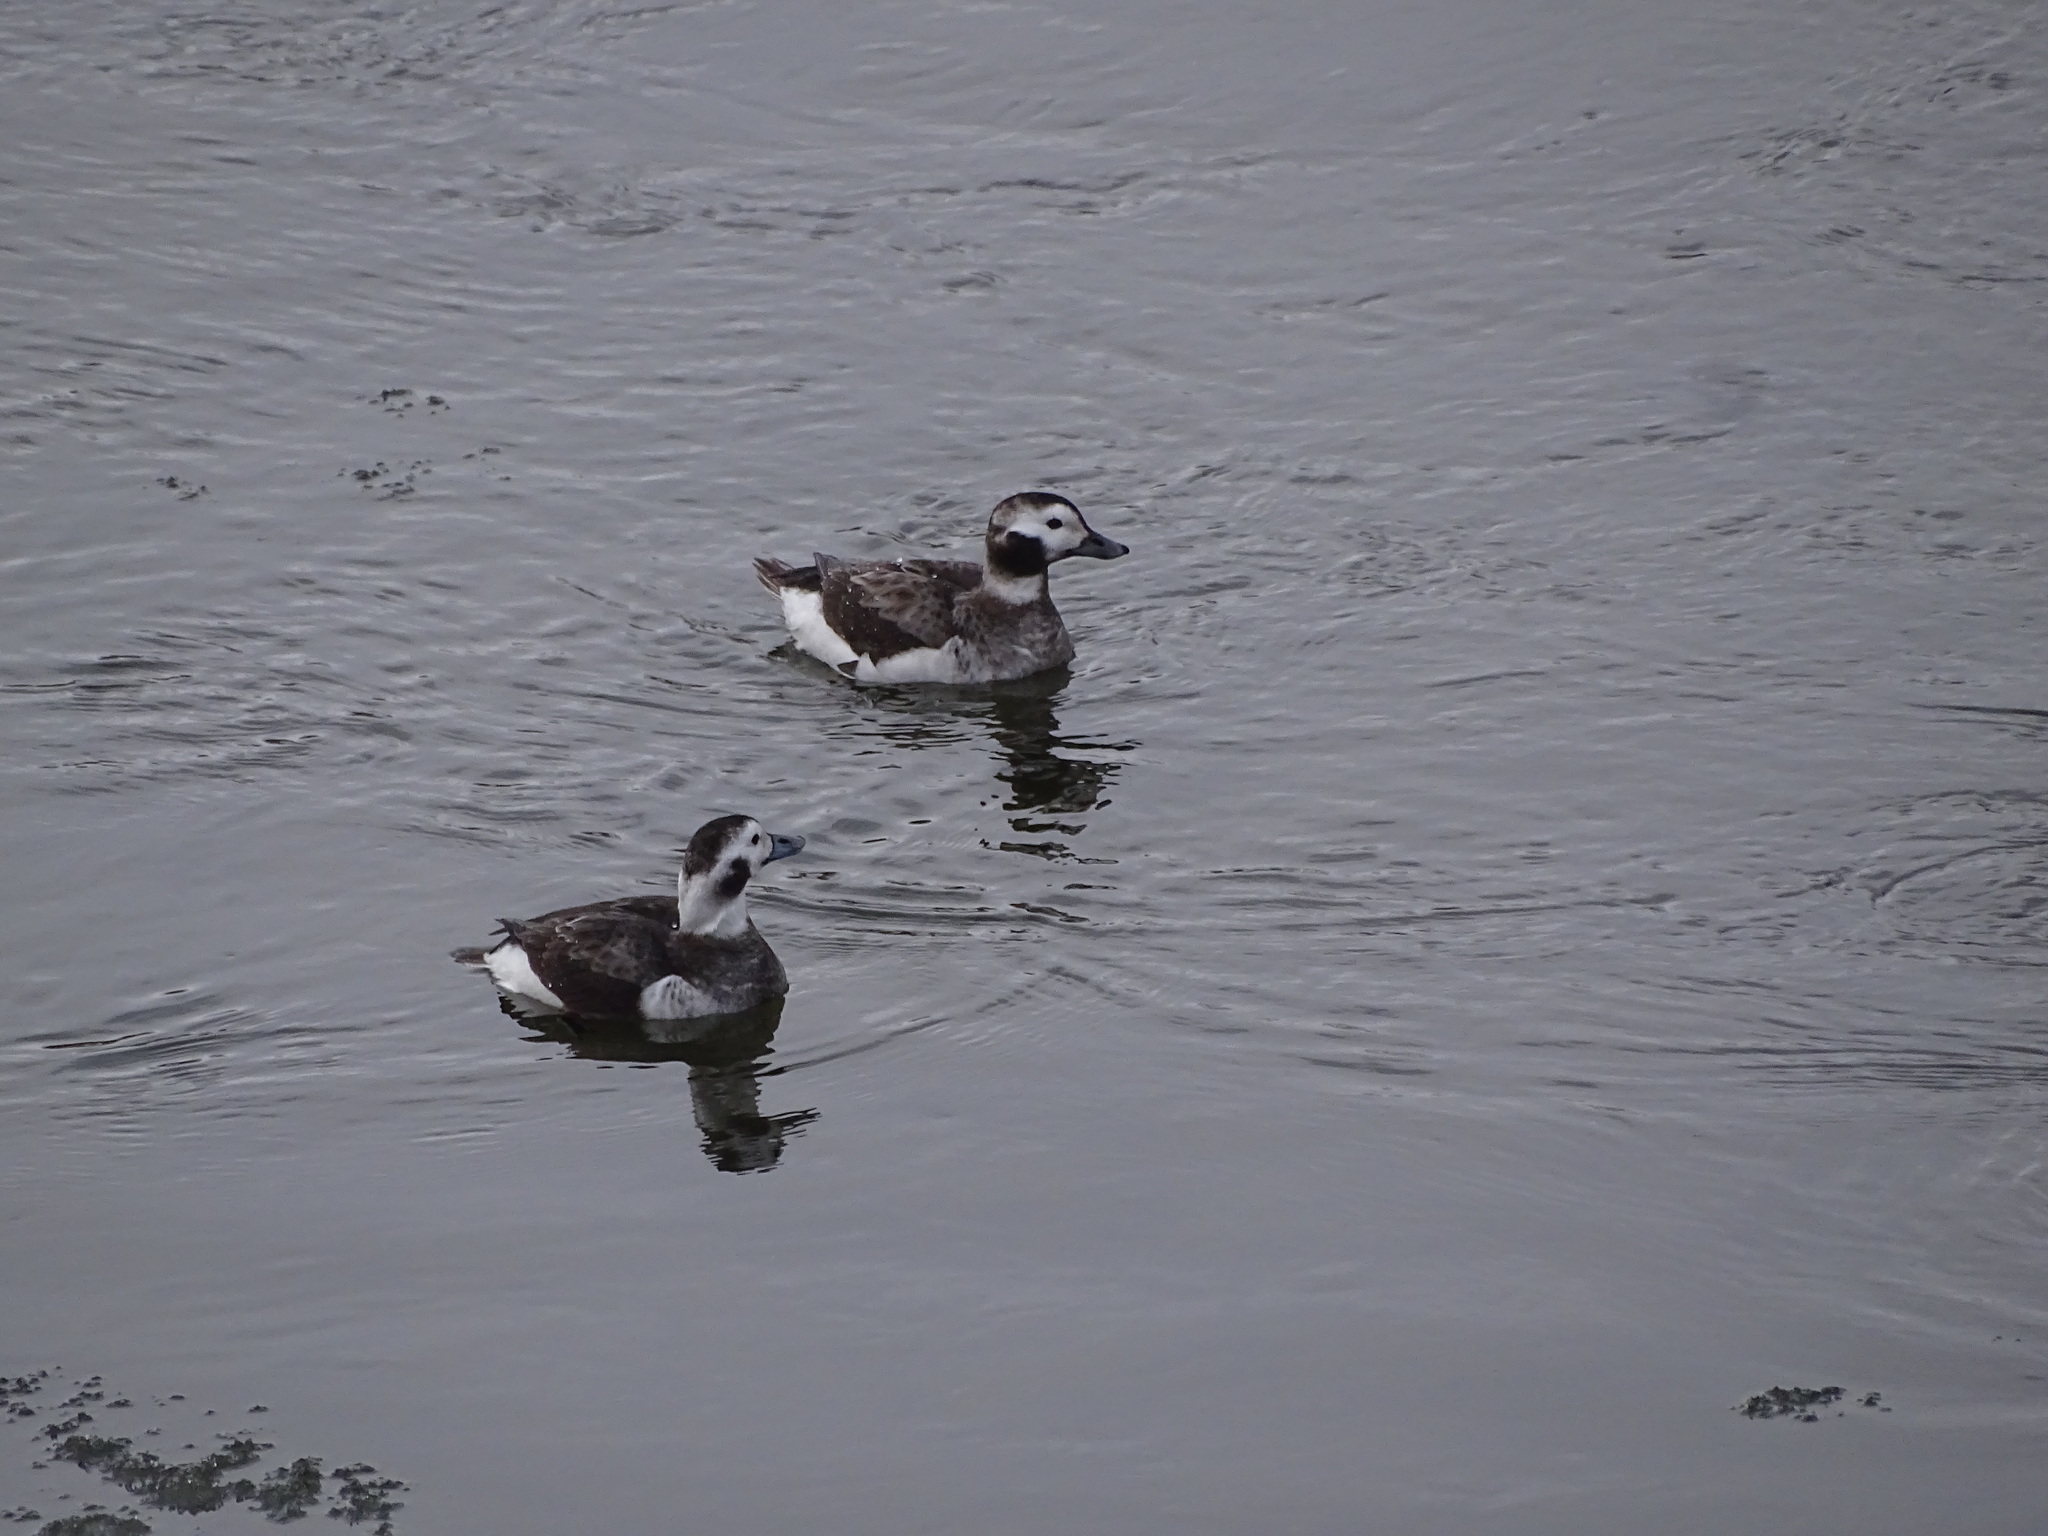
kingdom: Animalia
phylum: Chordata
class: Aves
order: Anseriformes
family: Anatidae
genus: Clangula
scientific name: Clangula hyemalis
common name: Long-tailed duck
